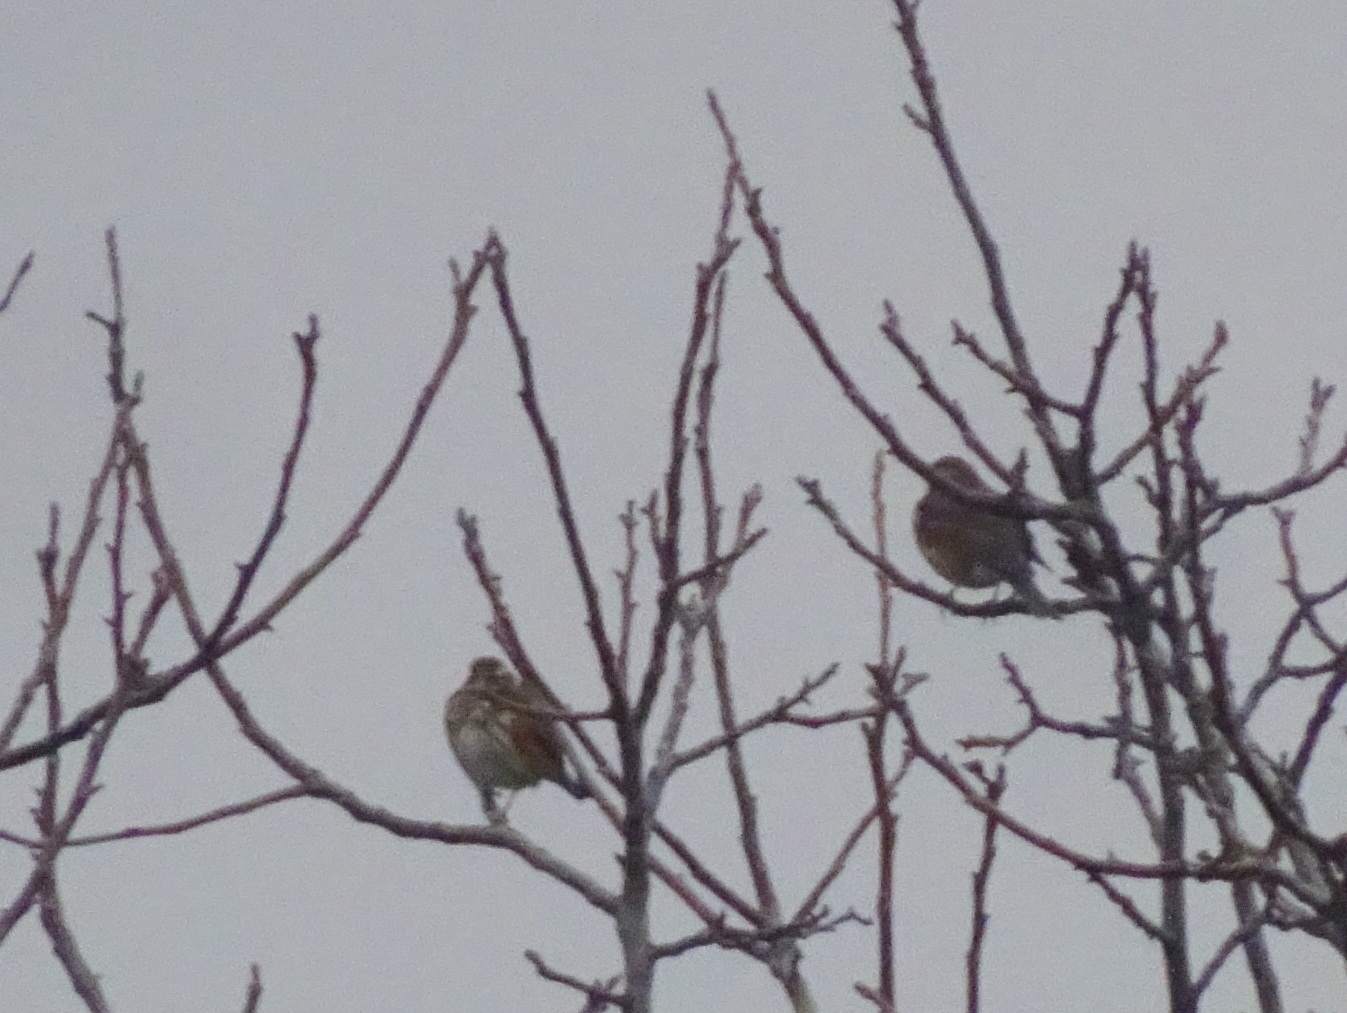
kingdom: Animalia
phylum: Chordata
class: Aves
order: Passeriformes
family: Turdidae
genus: Turdus
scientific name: Turdus iliacus
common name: Redwing
